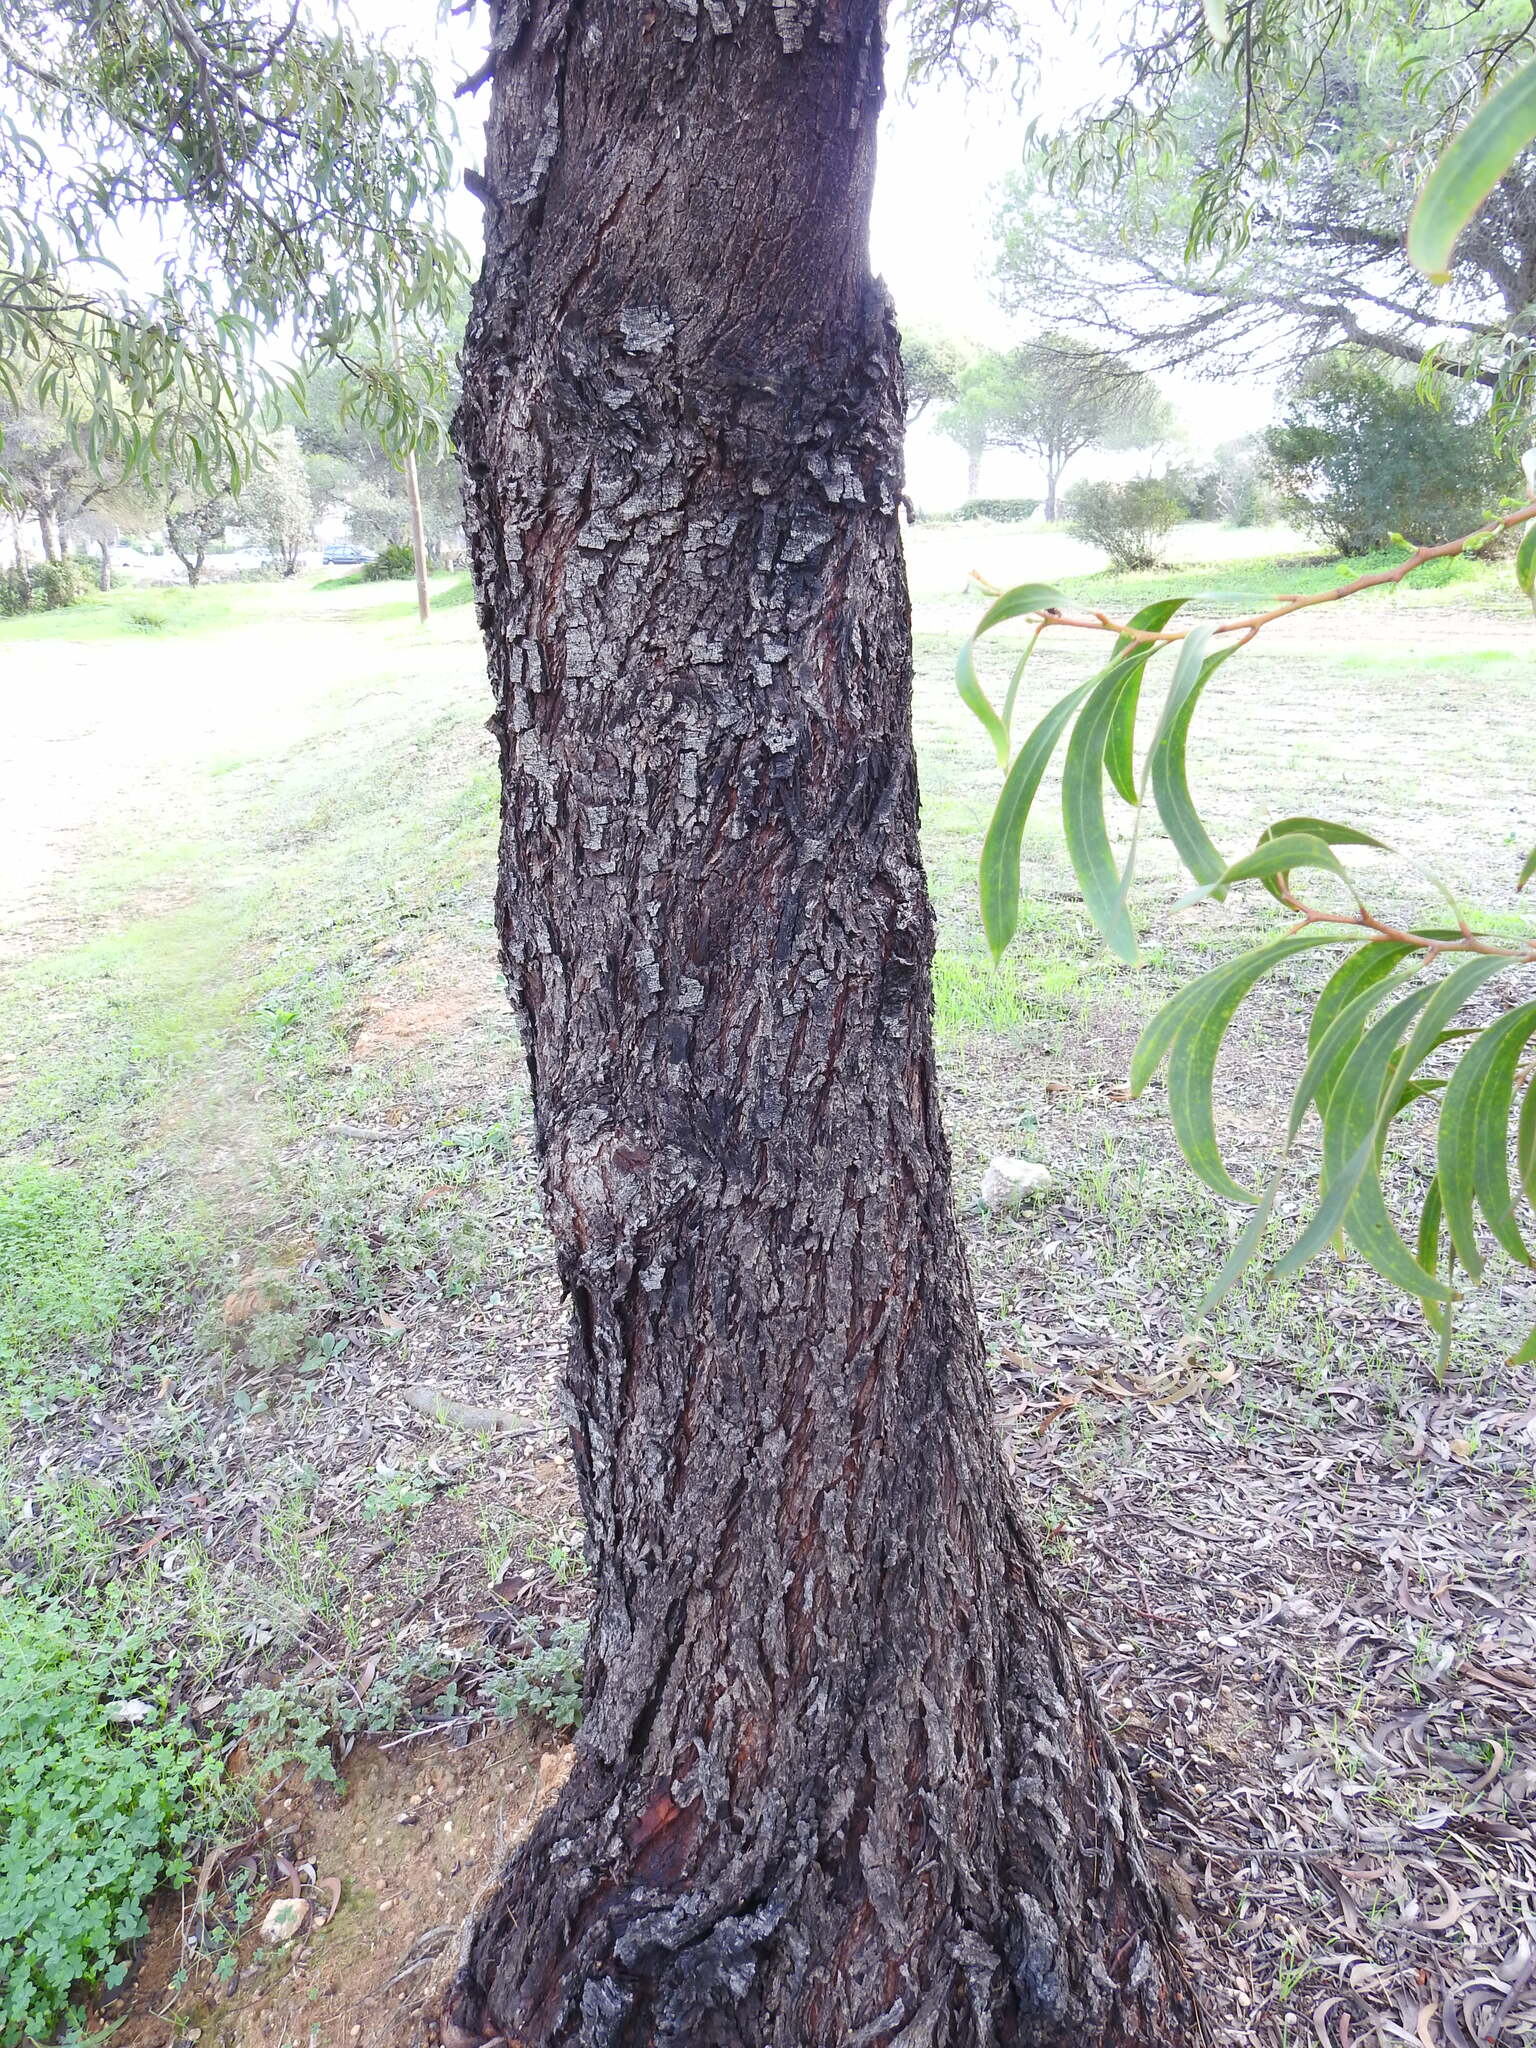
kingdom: Plantae
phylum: Tracheophyta
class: Magnoliopsida
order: Fabales
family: Fabaceae
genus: Acacia
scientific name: Acacia pycnantha
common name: Golden wattle
